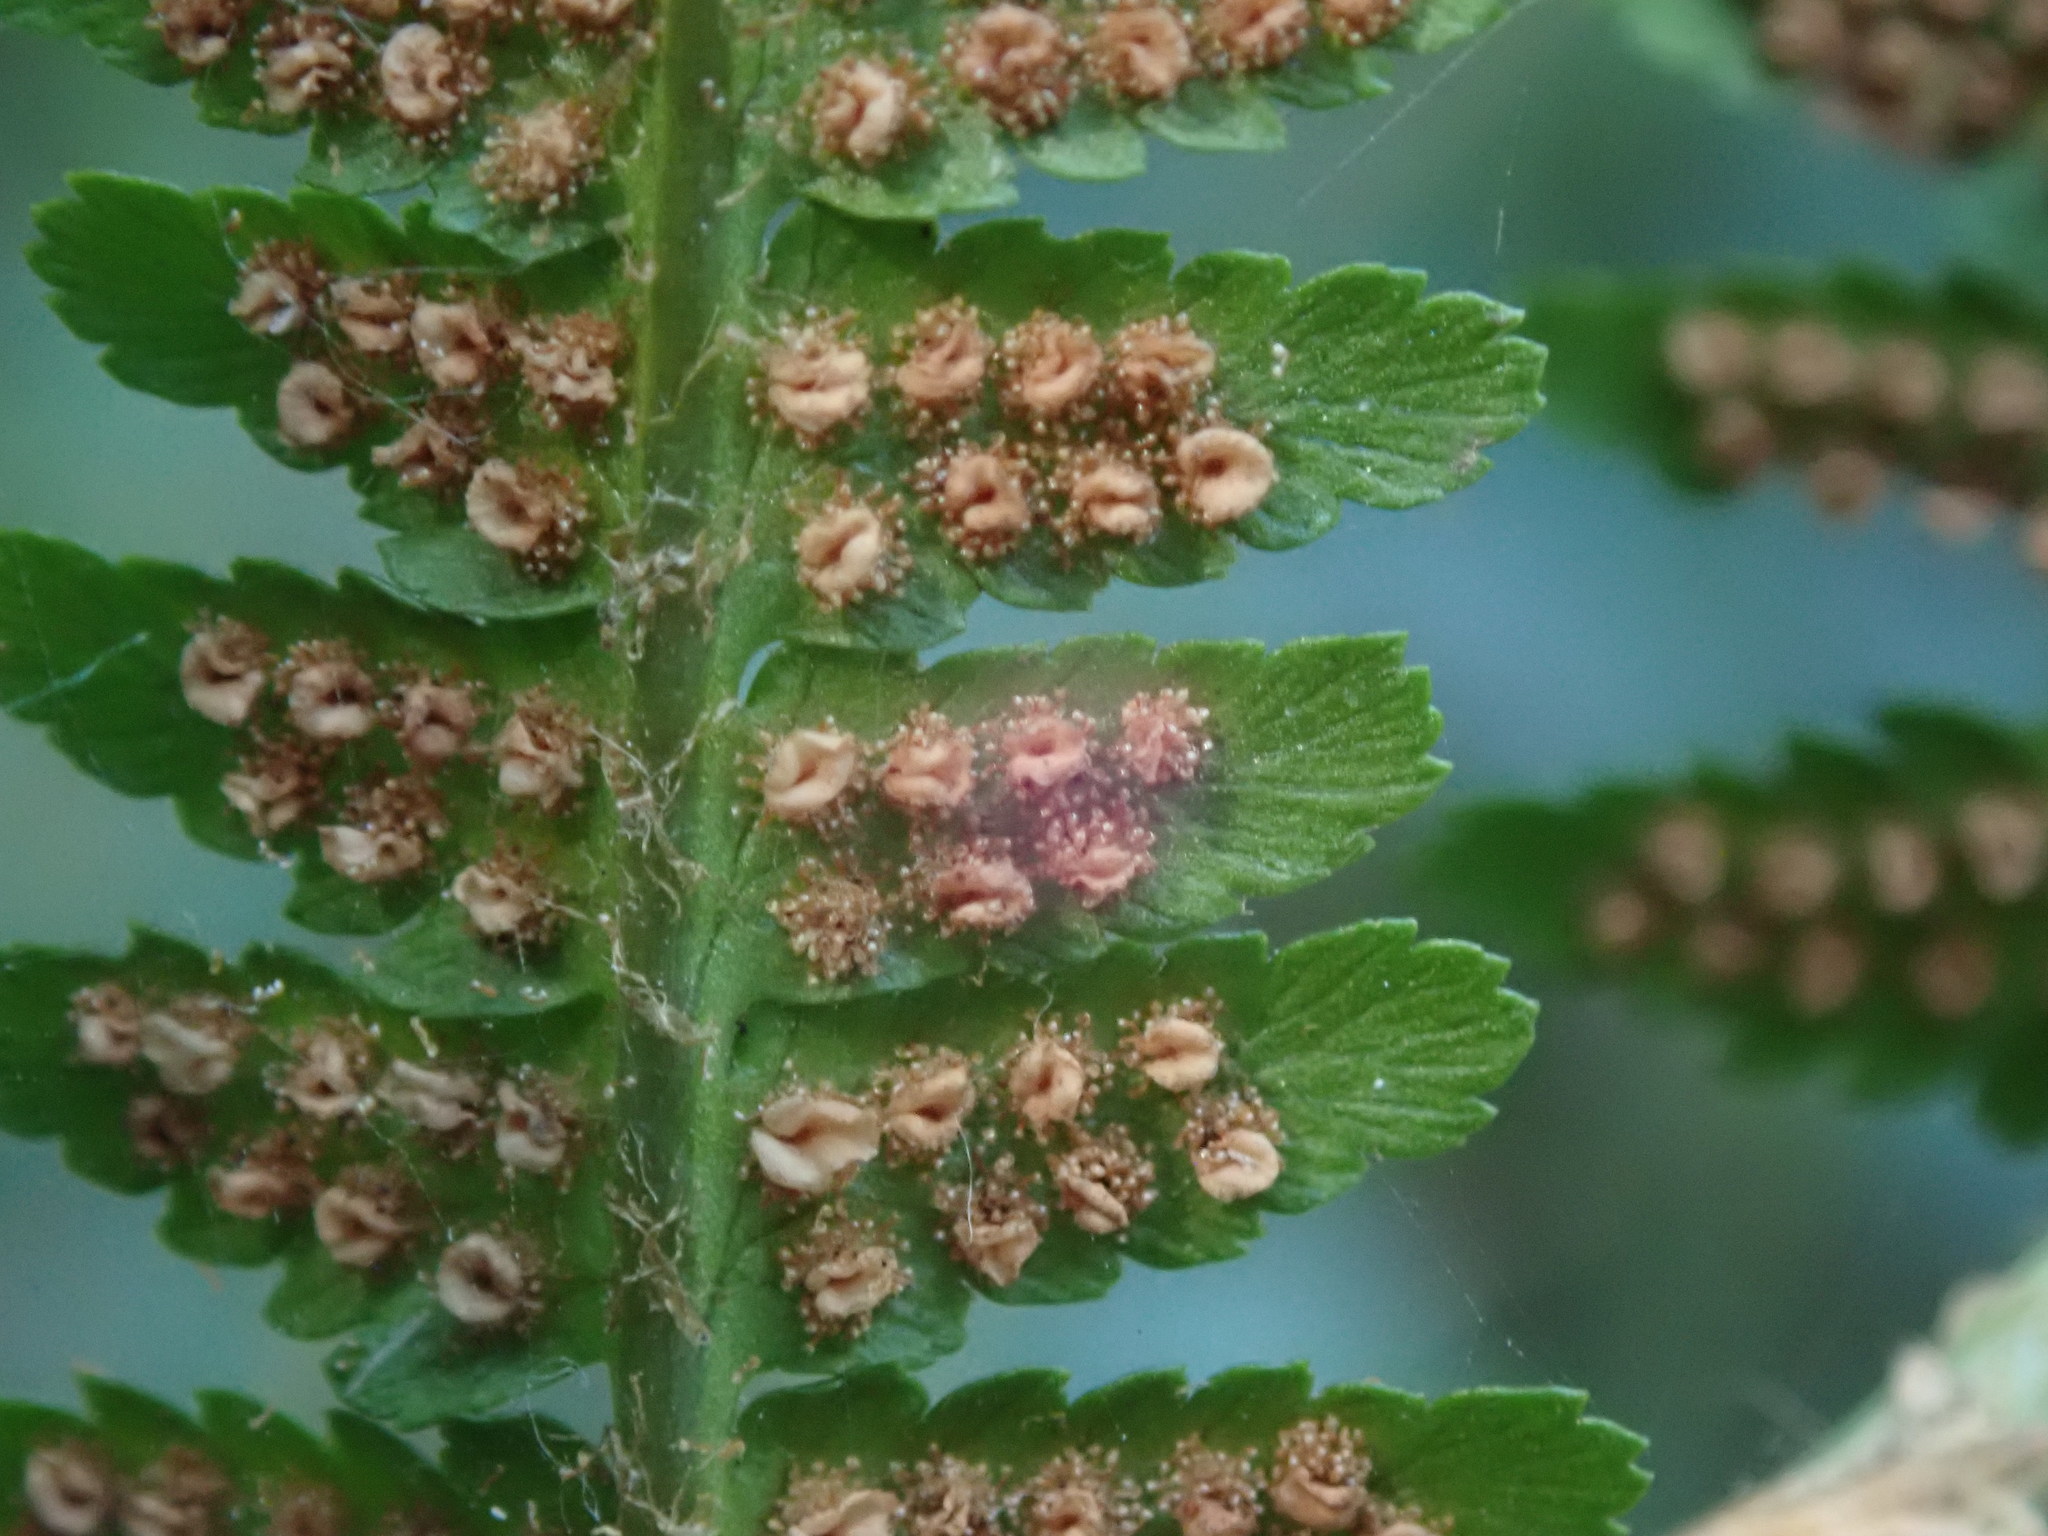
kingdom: Plantae
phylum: Tracheophyta
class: Polypodiopsida
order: Polypodiales
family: Dryopteridaceae
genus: Dryopteris
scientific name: Dryopteris filix-mas
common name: Male fern
